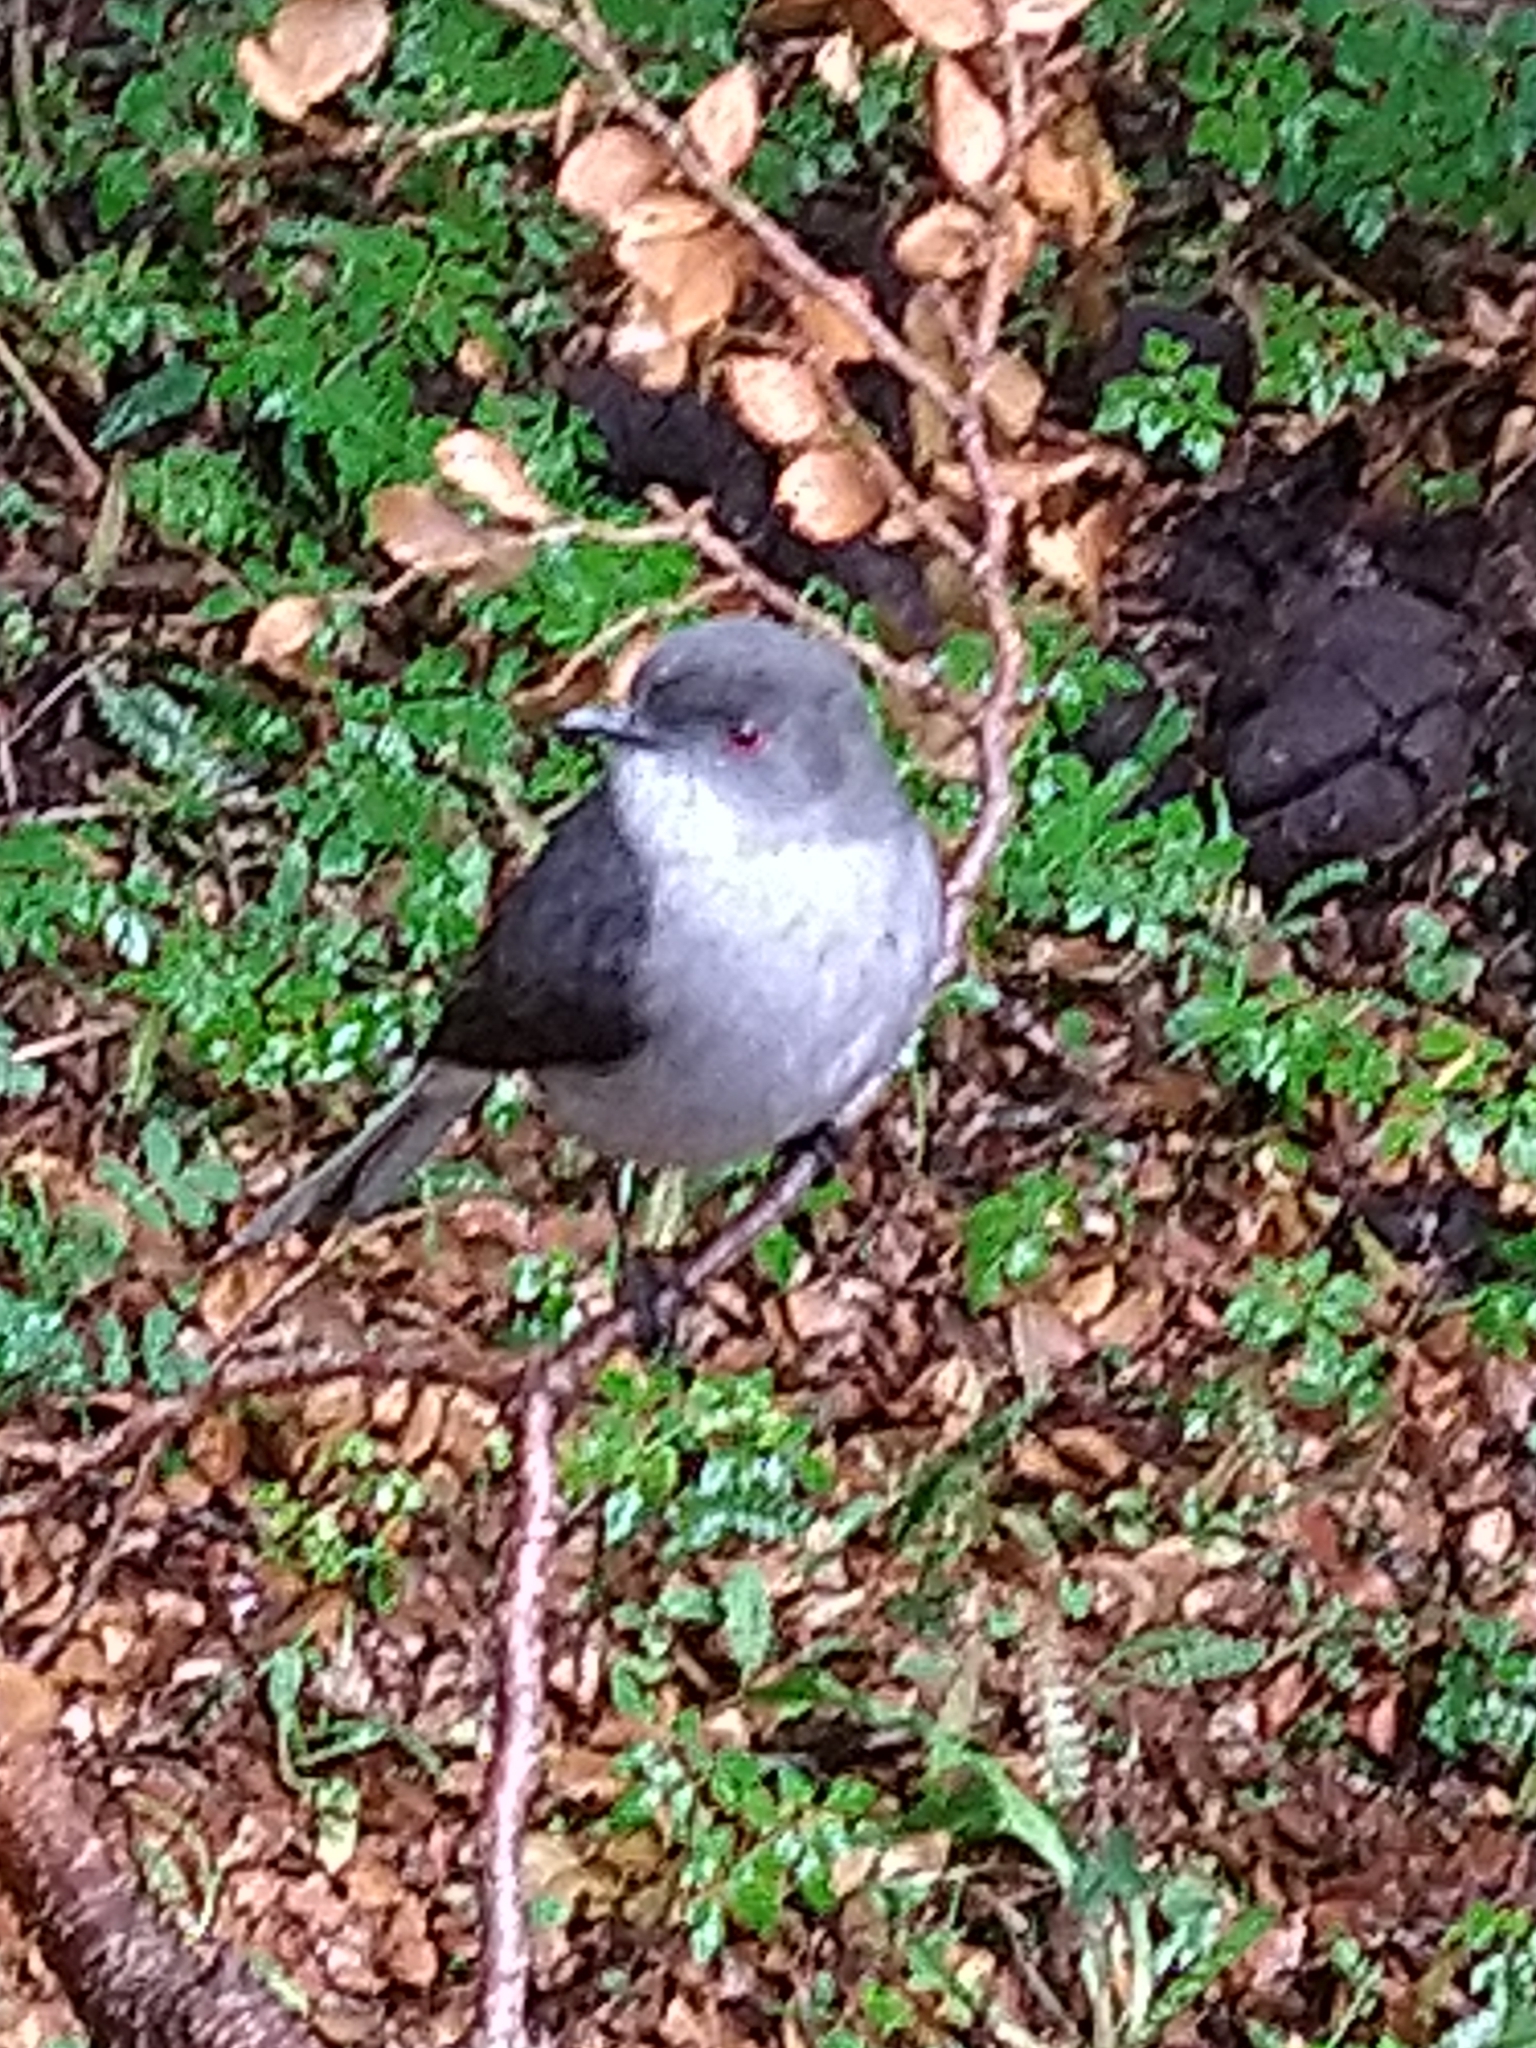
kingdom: Animalia
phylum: Chordata
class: Aves
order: Passeriformes
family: Tyrannidae
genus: Xolmis
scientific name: Xolmis pyrope
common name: Fire-eyed diucon
